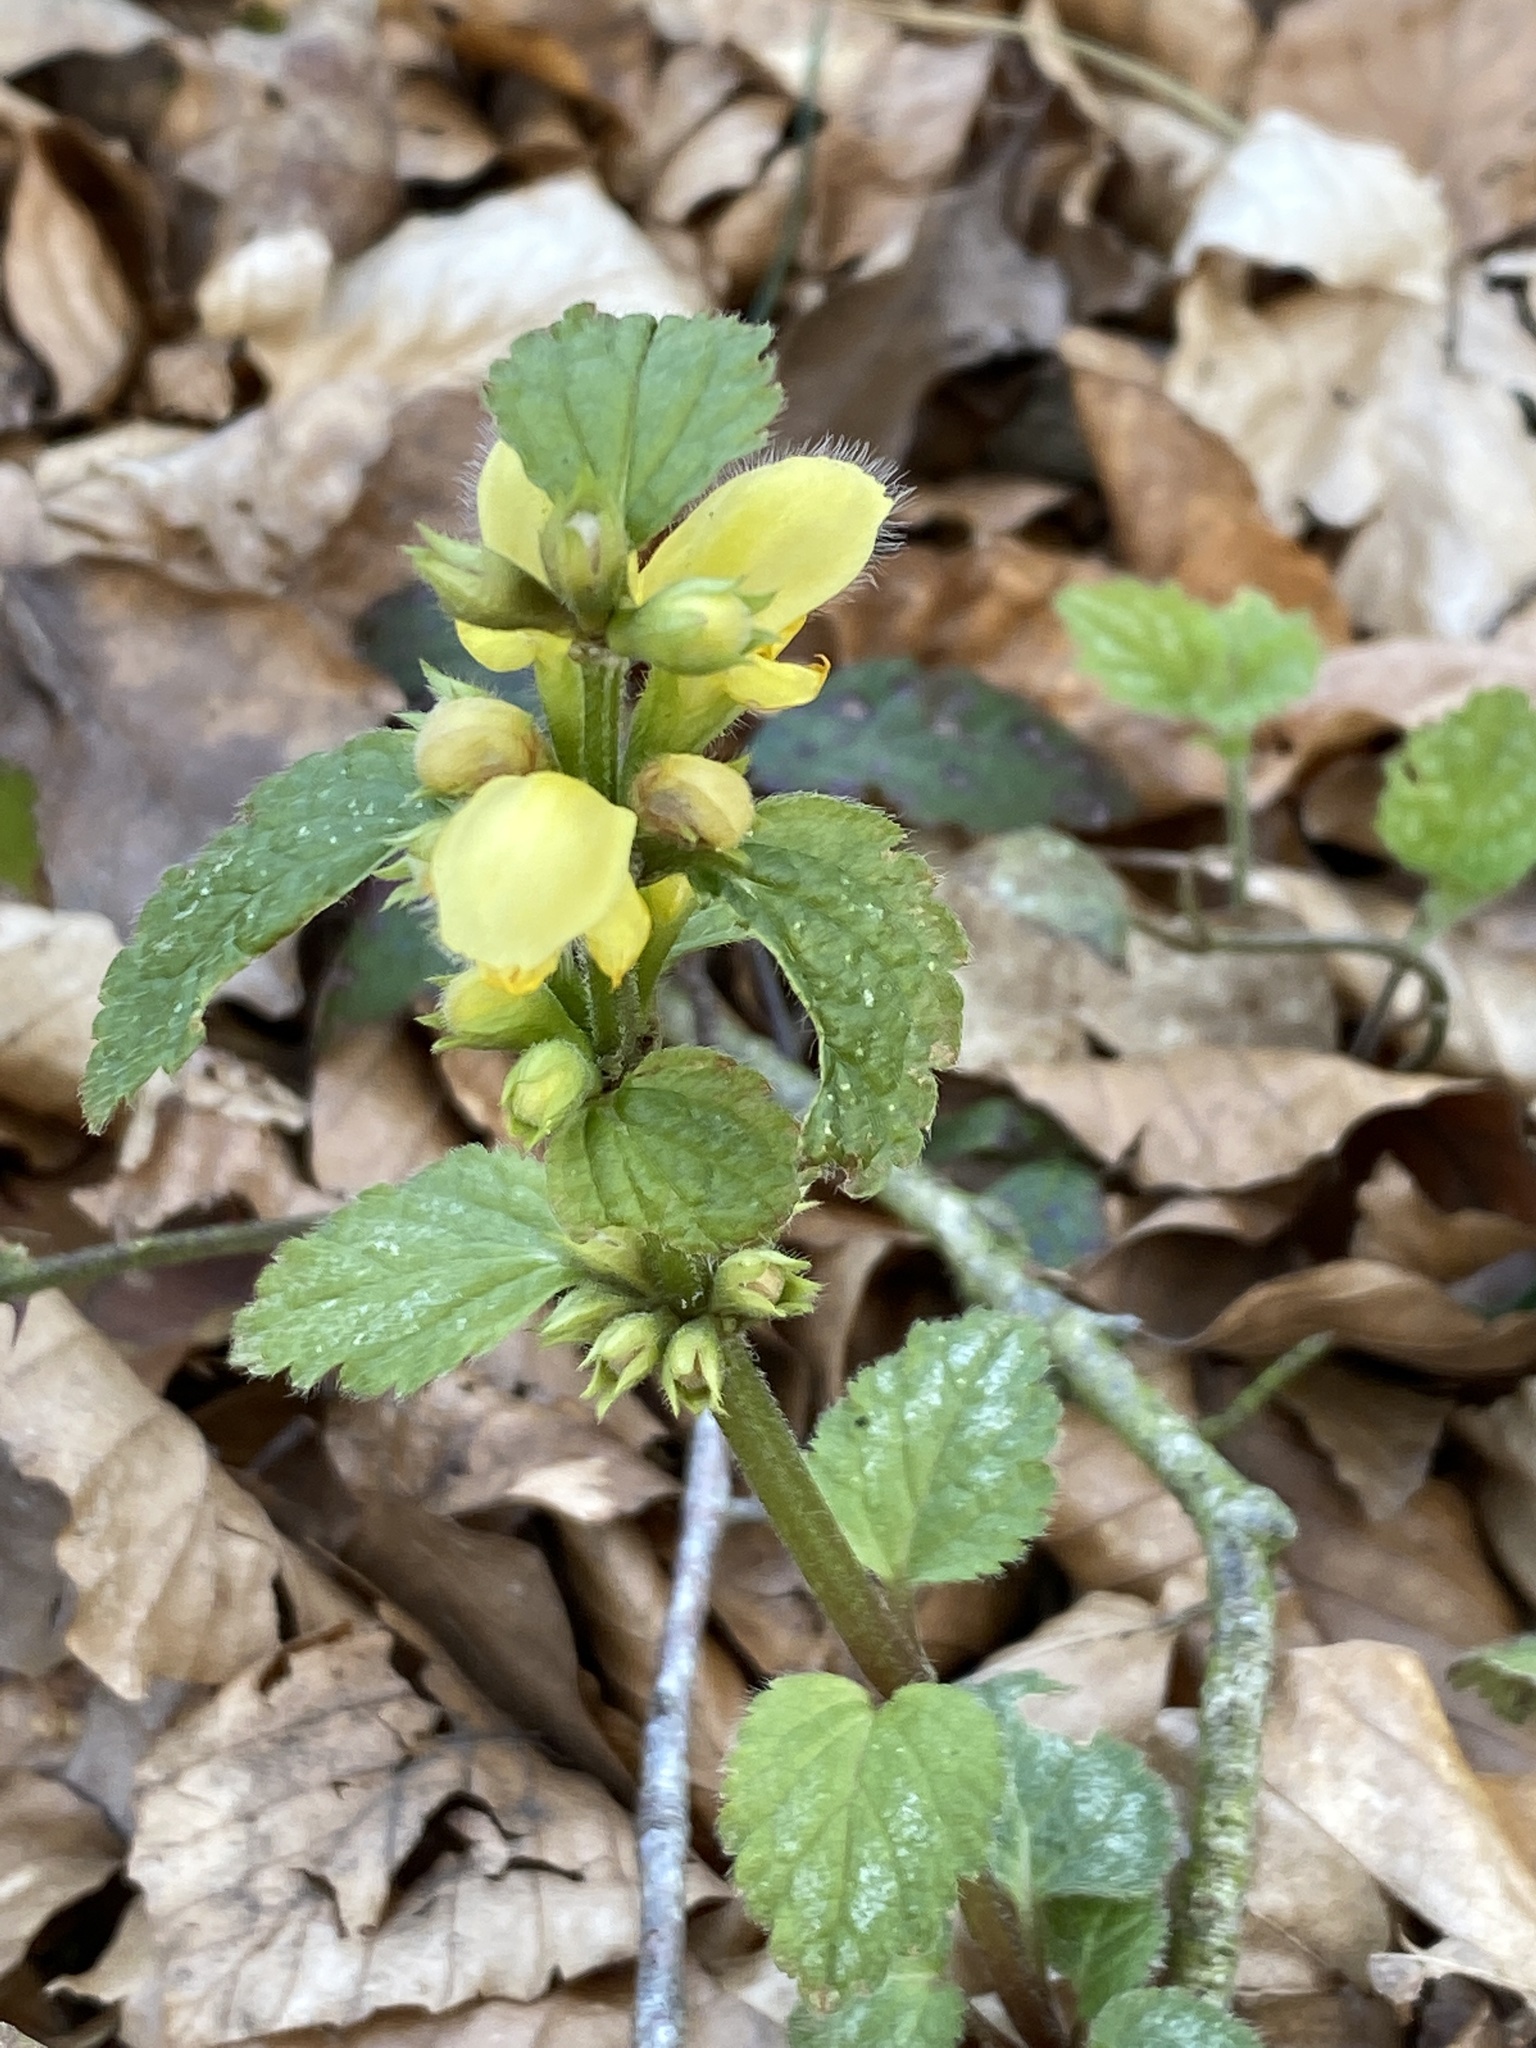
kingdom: Plantae
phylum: Tracheophyta
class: Magnoliopsida
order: Lamiales
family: Lamiaceae
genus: Lamium
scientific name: Lamium galeobdolon
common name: Yellow archangel
